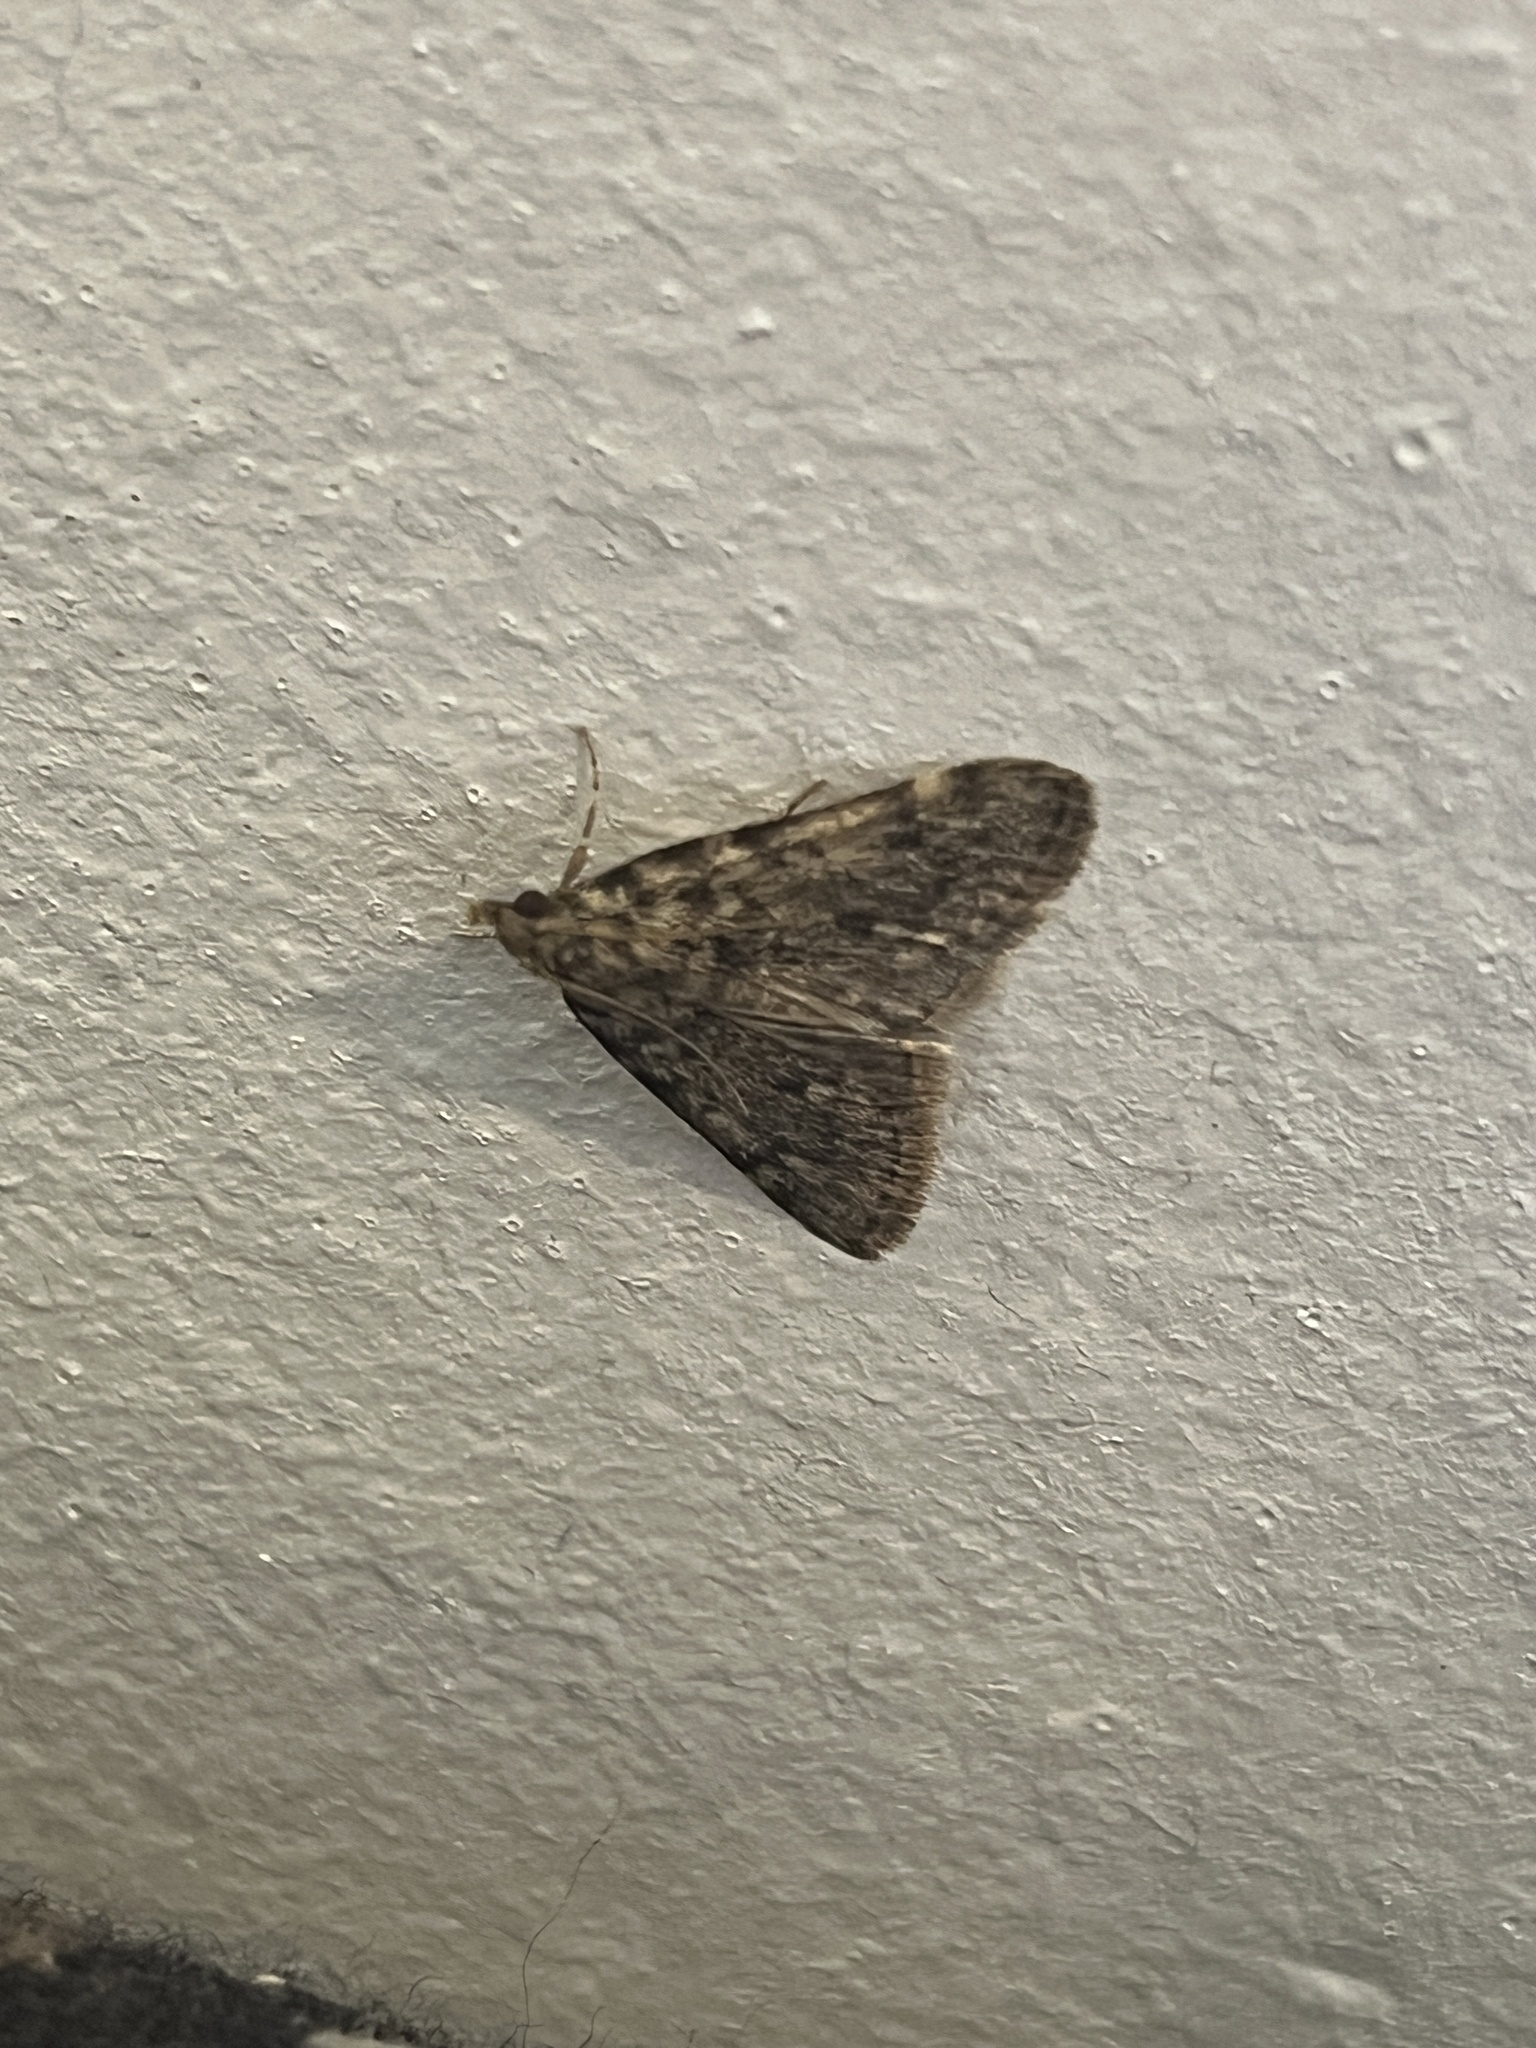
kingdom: Animalia
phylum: Arthropoda
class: Insecta
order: Lepidoptera
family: Pyralidae
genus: Aglossa
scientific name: Aglossa pinguinalis
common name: Large tabby
